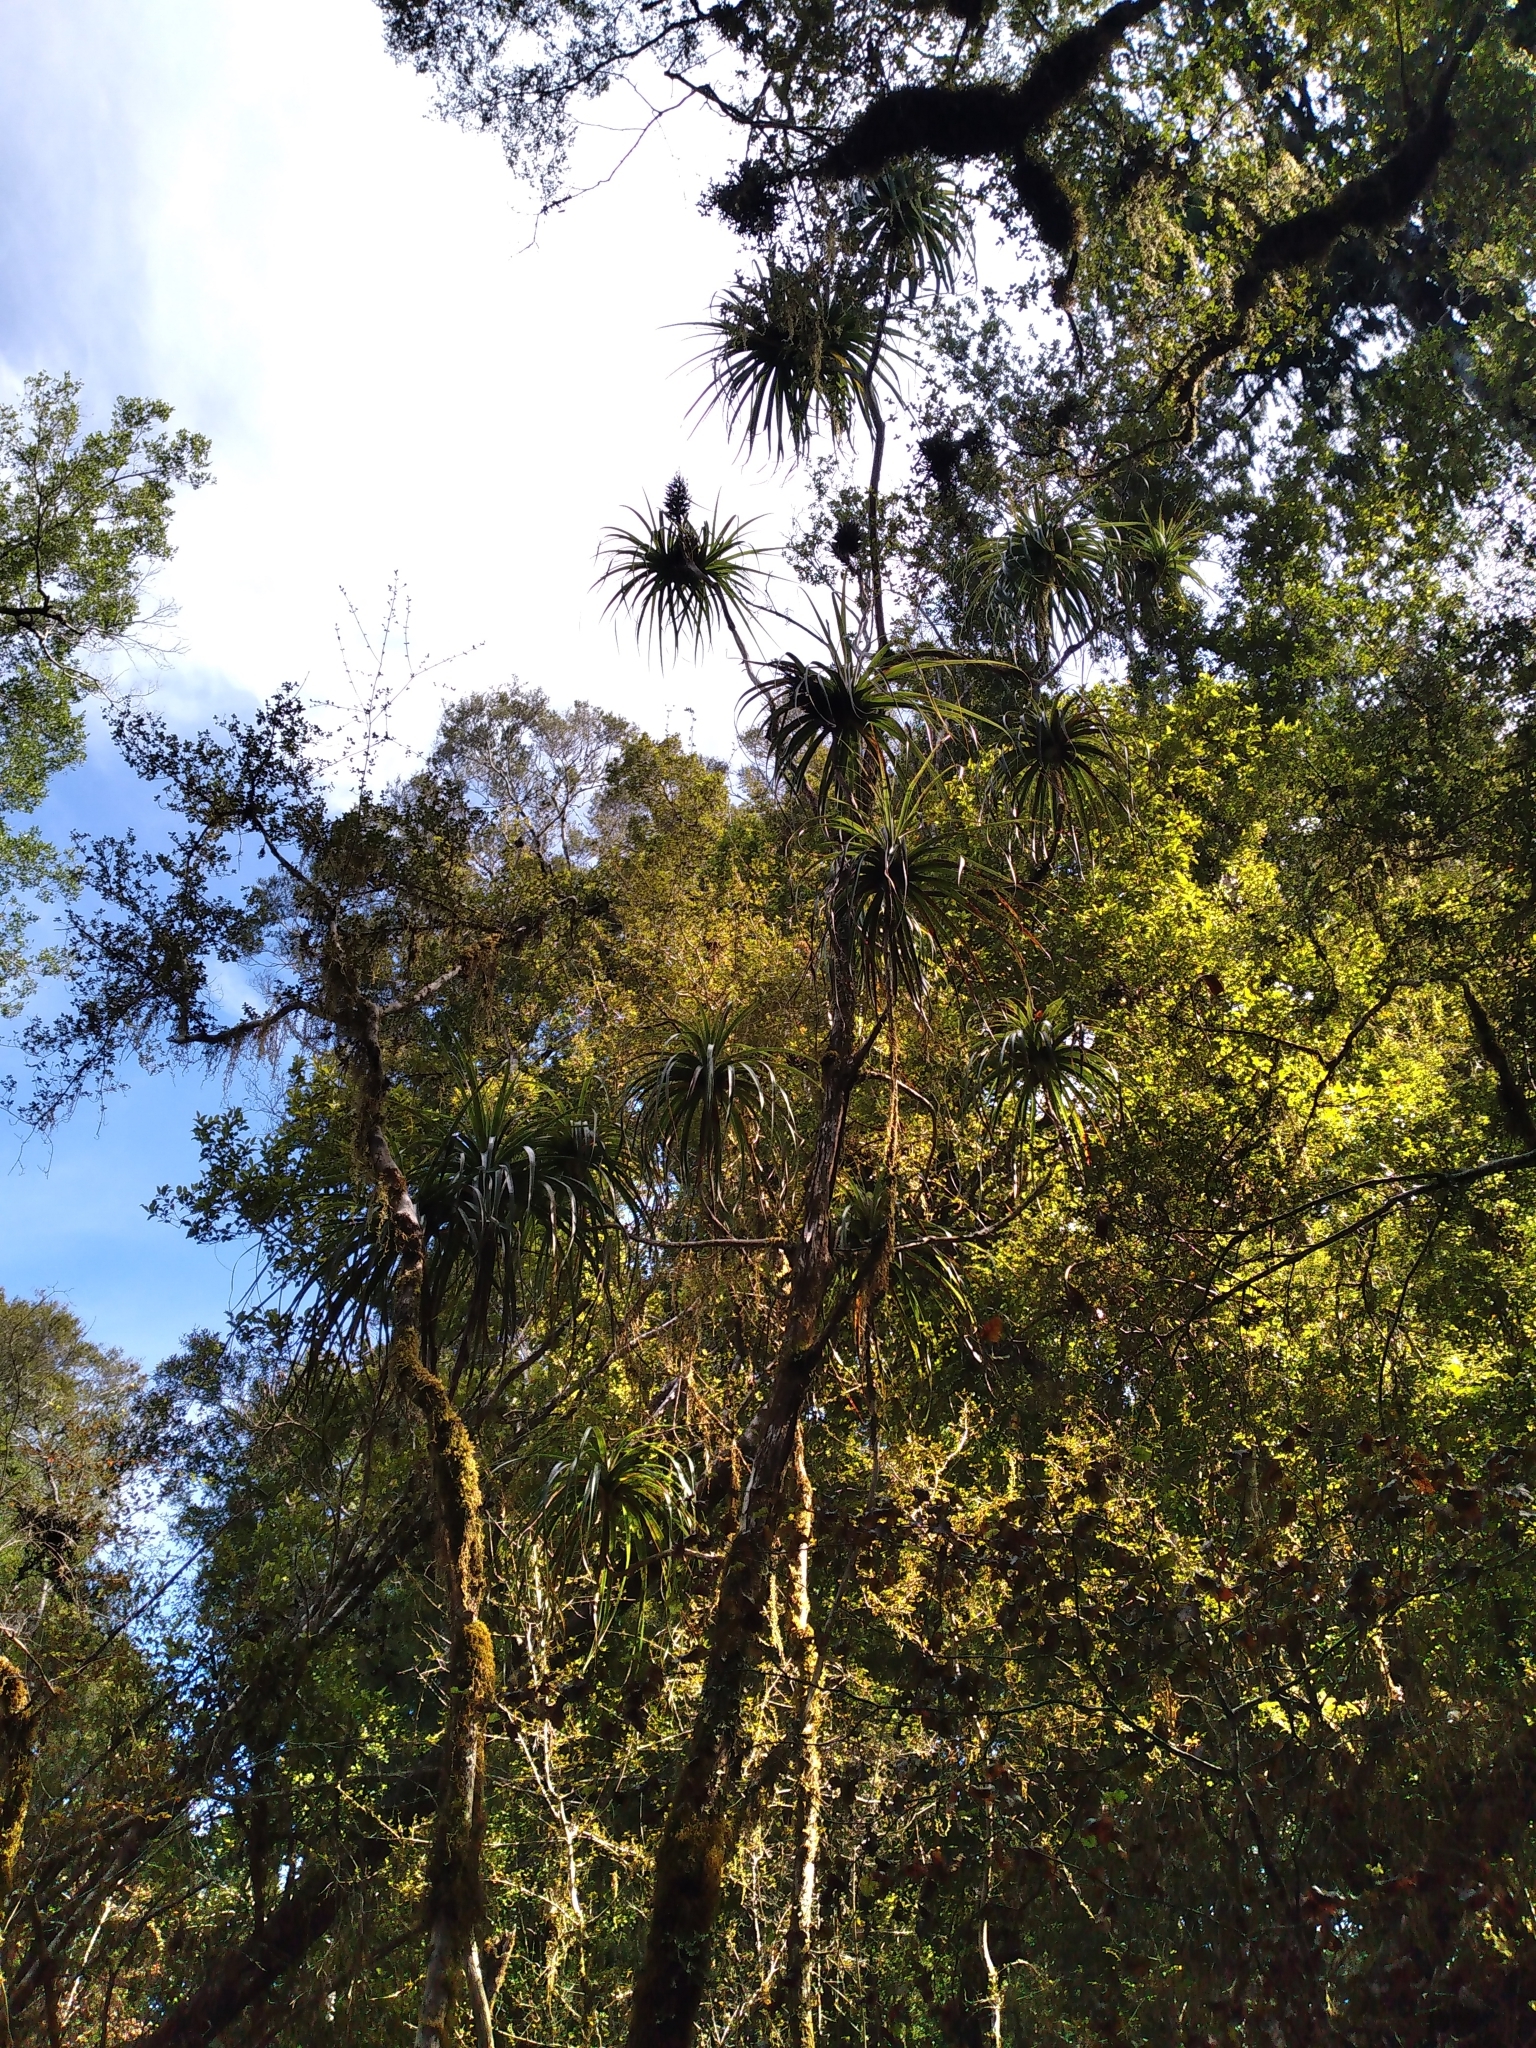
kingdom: Plantae
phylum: Tracheophyta
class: Magnoliopsida
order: Ericales
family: Ericaceae
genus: Dracophyllum
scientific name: Dracophyllum elegantissimum
